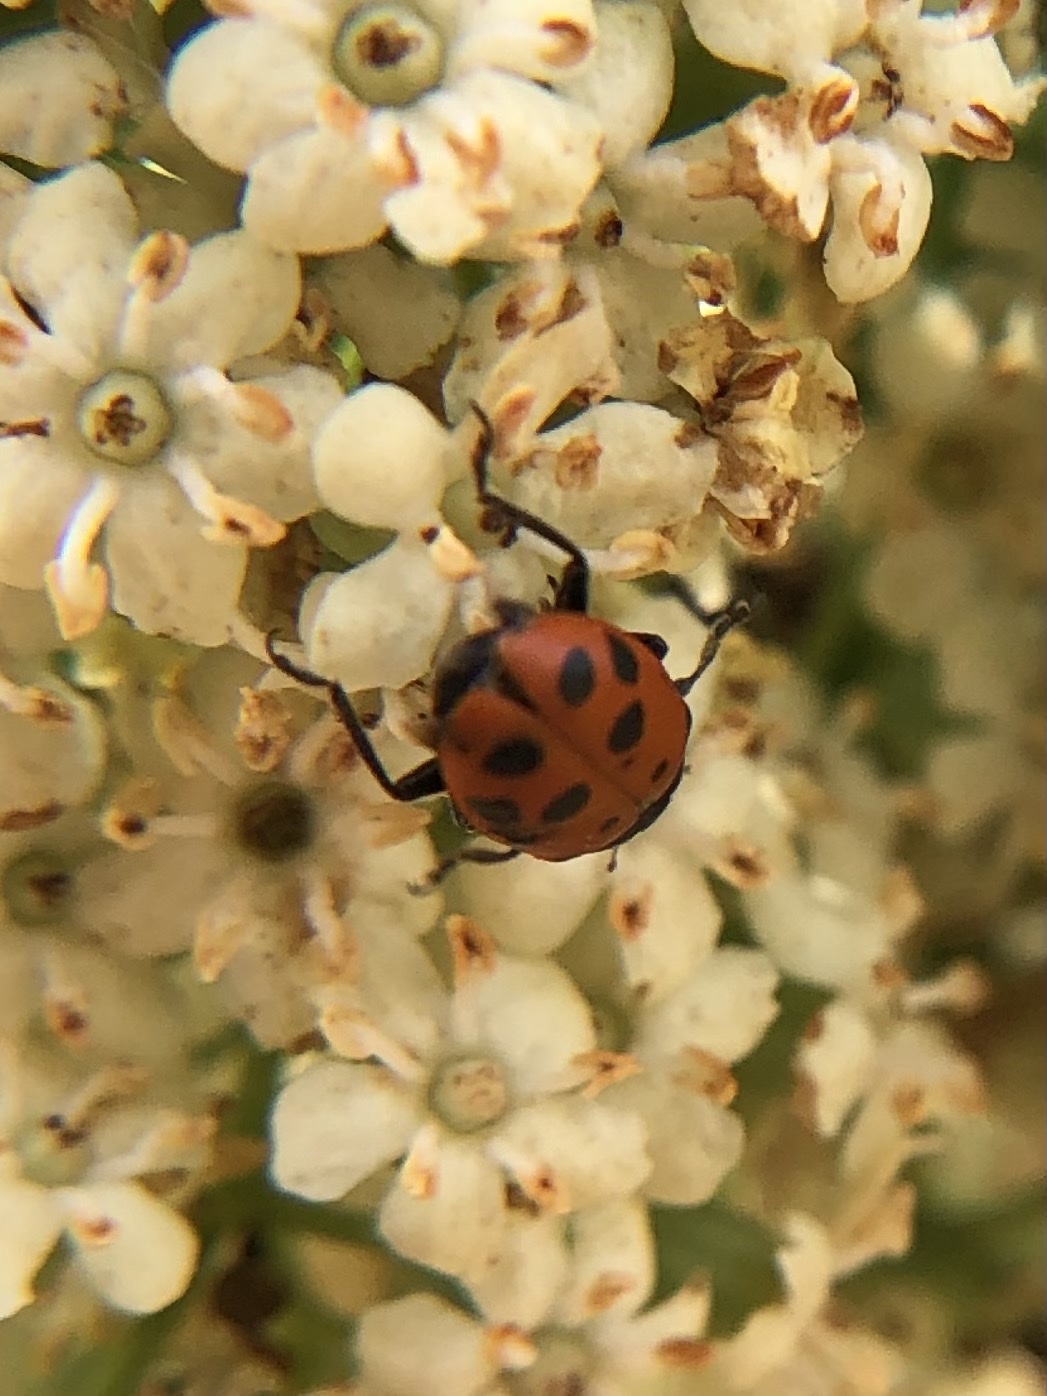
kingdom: Animalia
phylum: Arthropoda
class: Insecta
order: Coleoptera
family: Coccinellidae
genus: Hippodamia
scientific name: Hippodamia convergens
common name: Convergent lady beetle
